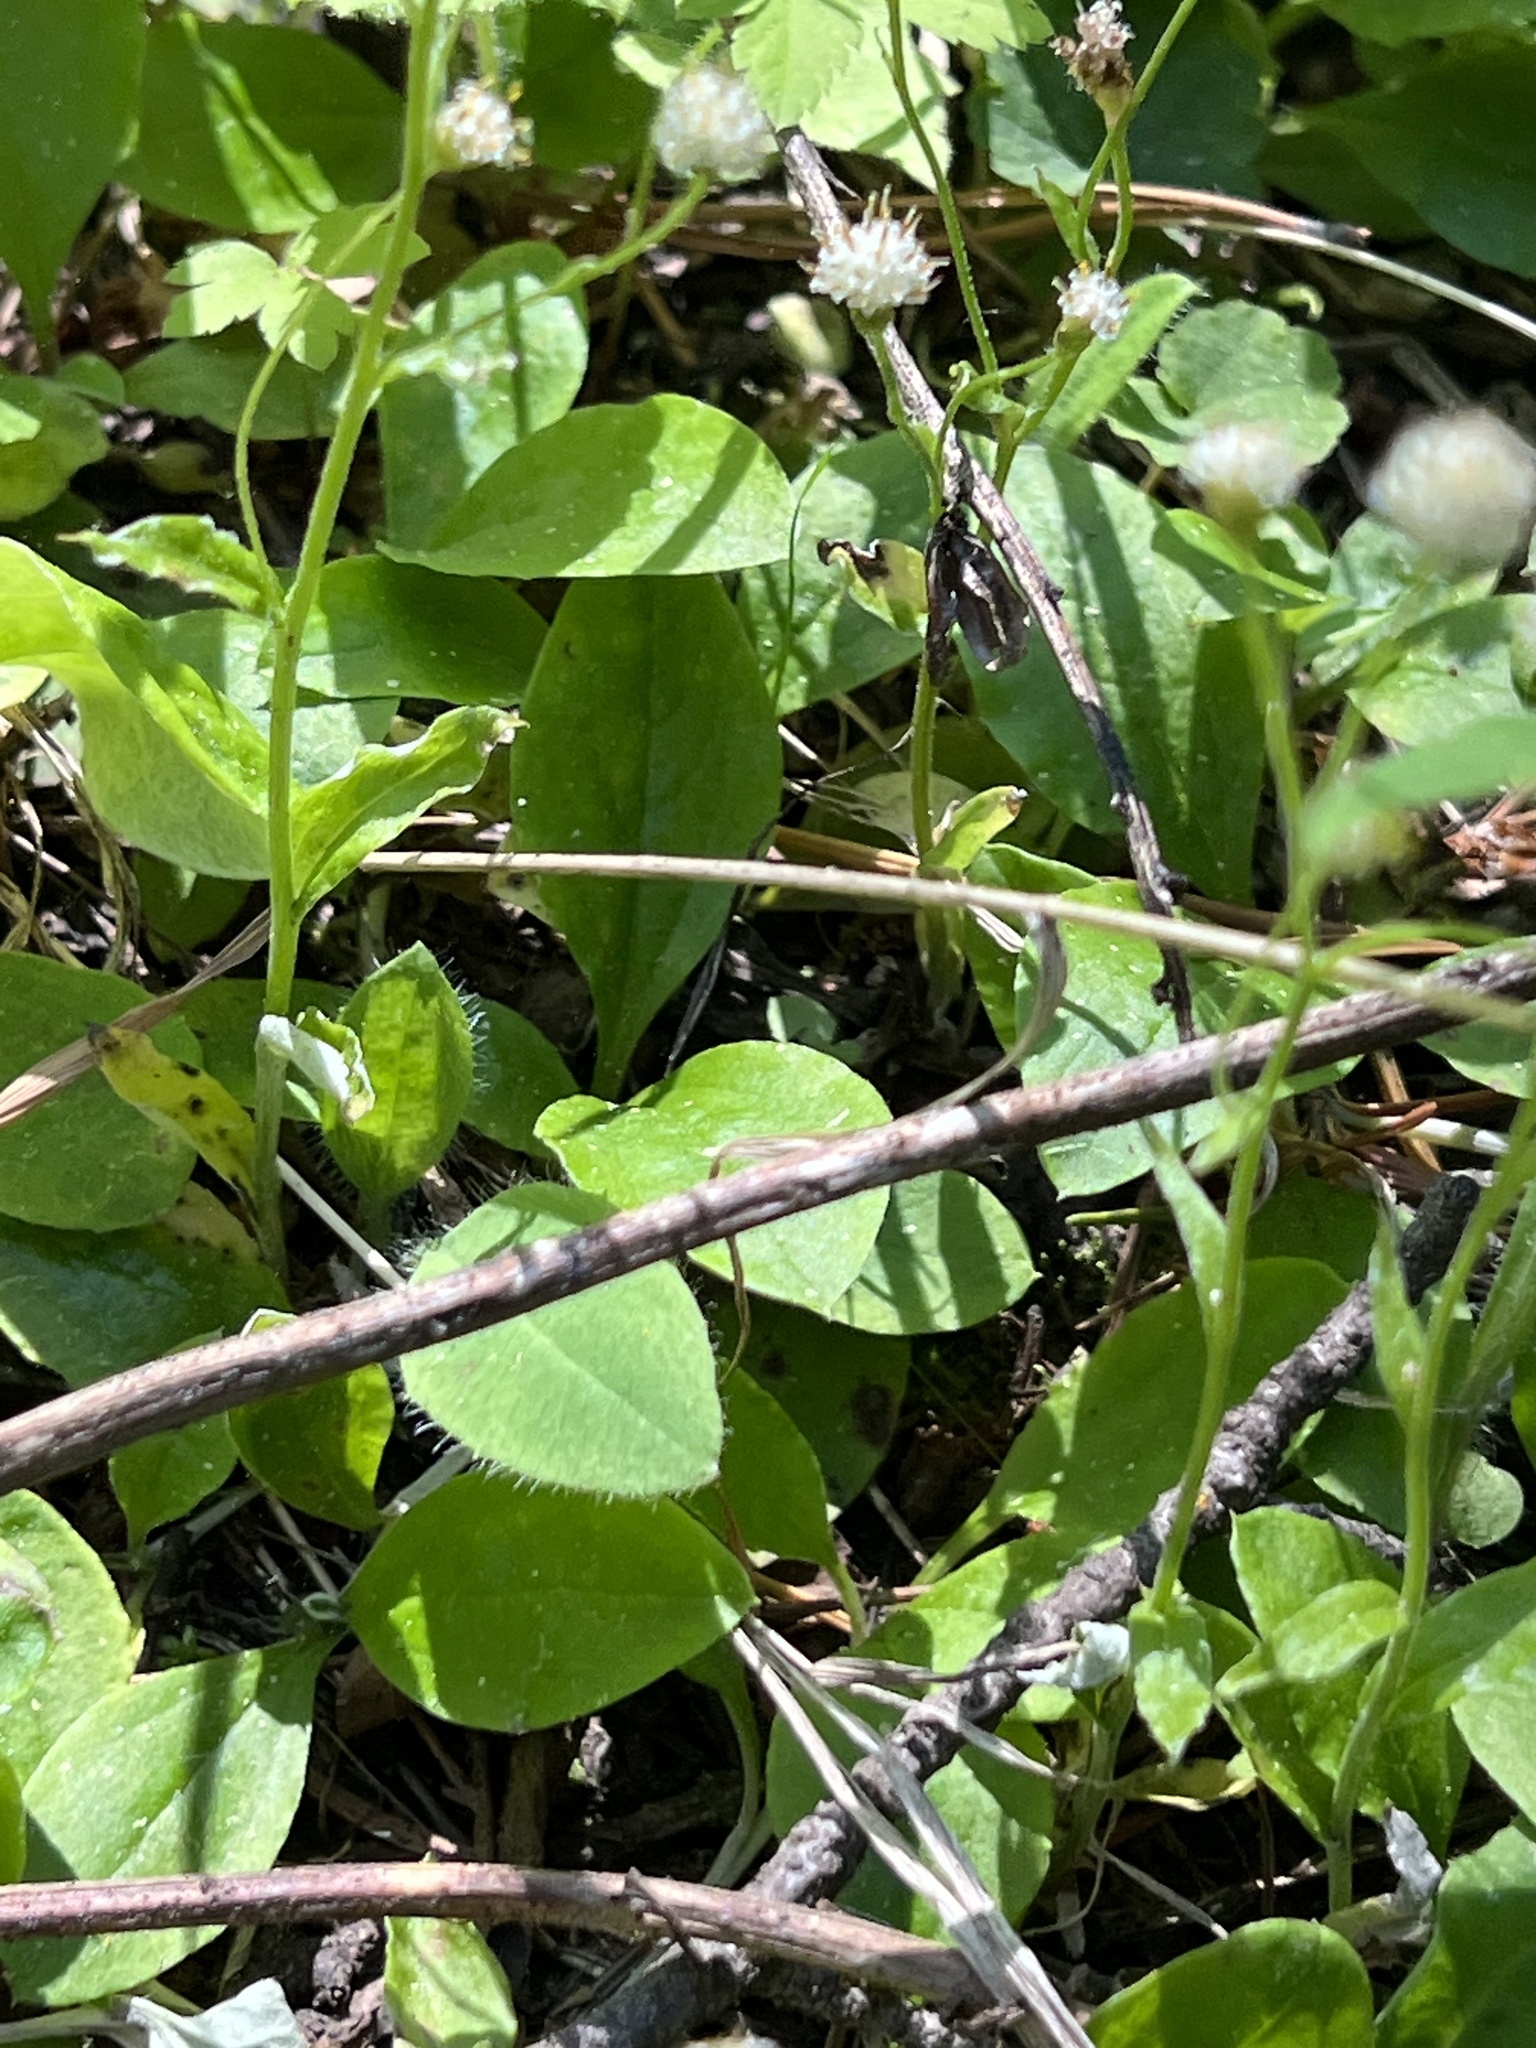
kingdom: Plantae
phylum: Tracheophyta
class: Magnoliopsida
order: Asterales
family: Asteraceae
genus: Antennaria
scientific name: Antennaria racemosa
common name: Racemose pussytoes
